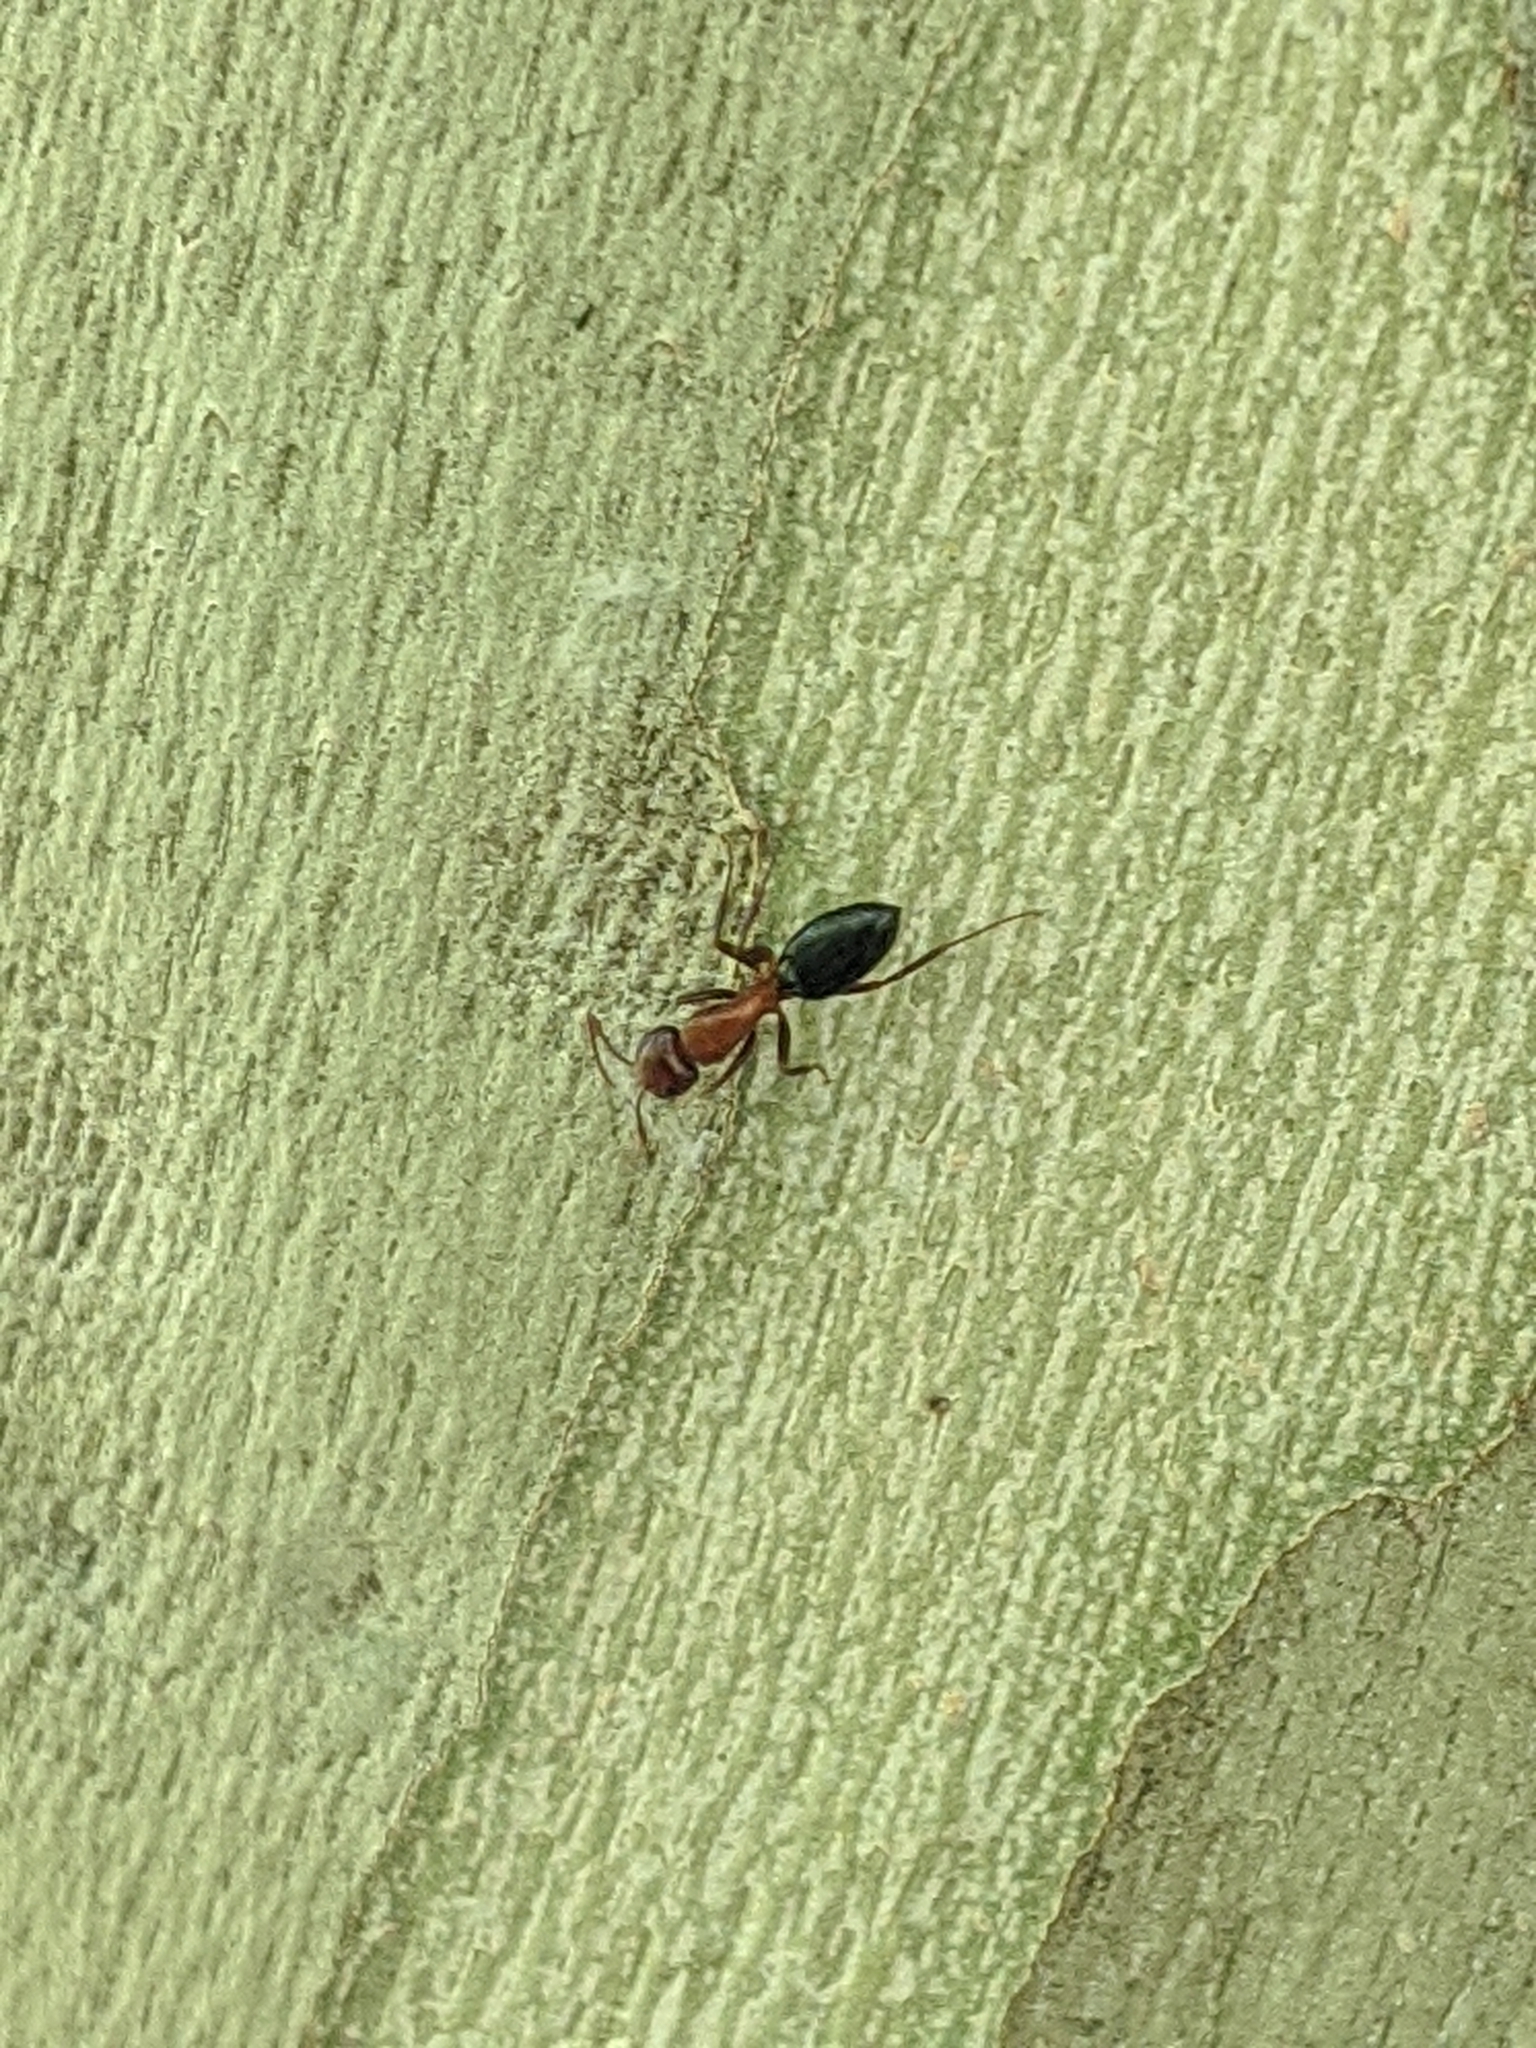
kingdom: Animalia
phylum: Arthropoda
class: Insecta
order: Hymenoptera
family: Formicidae
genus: Camponotus
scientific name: Camponotus sayi
